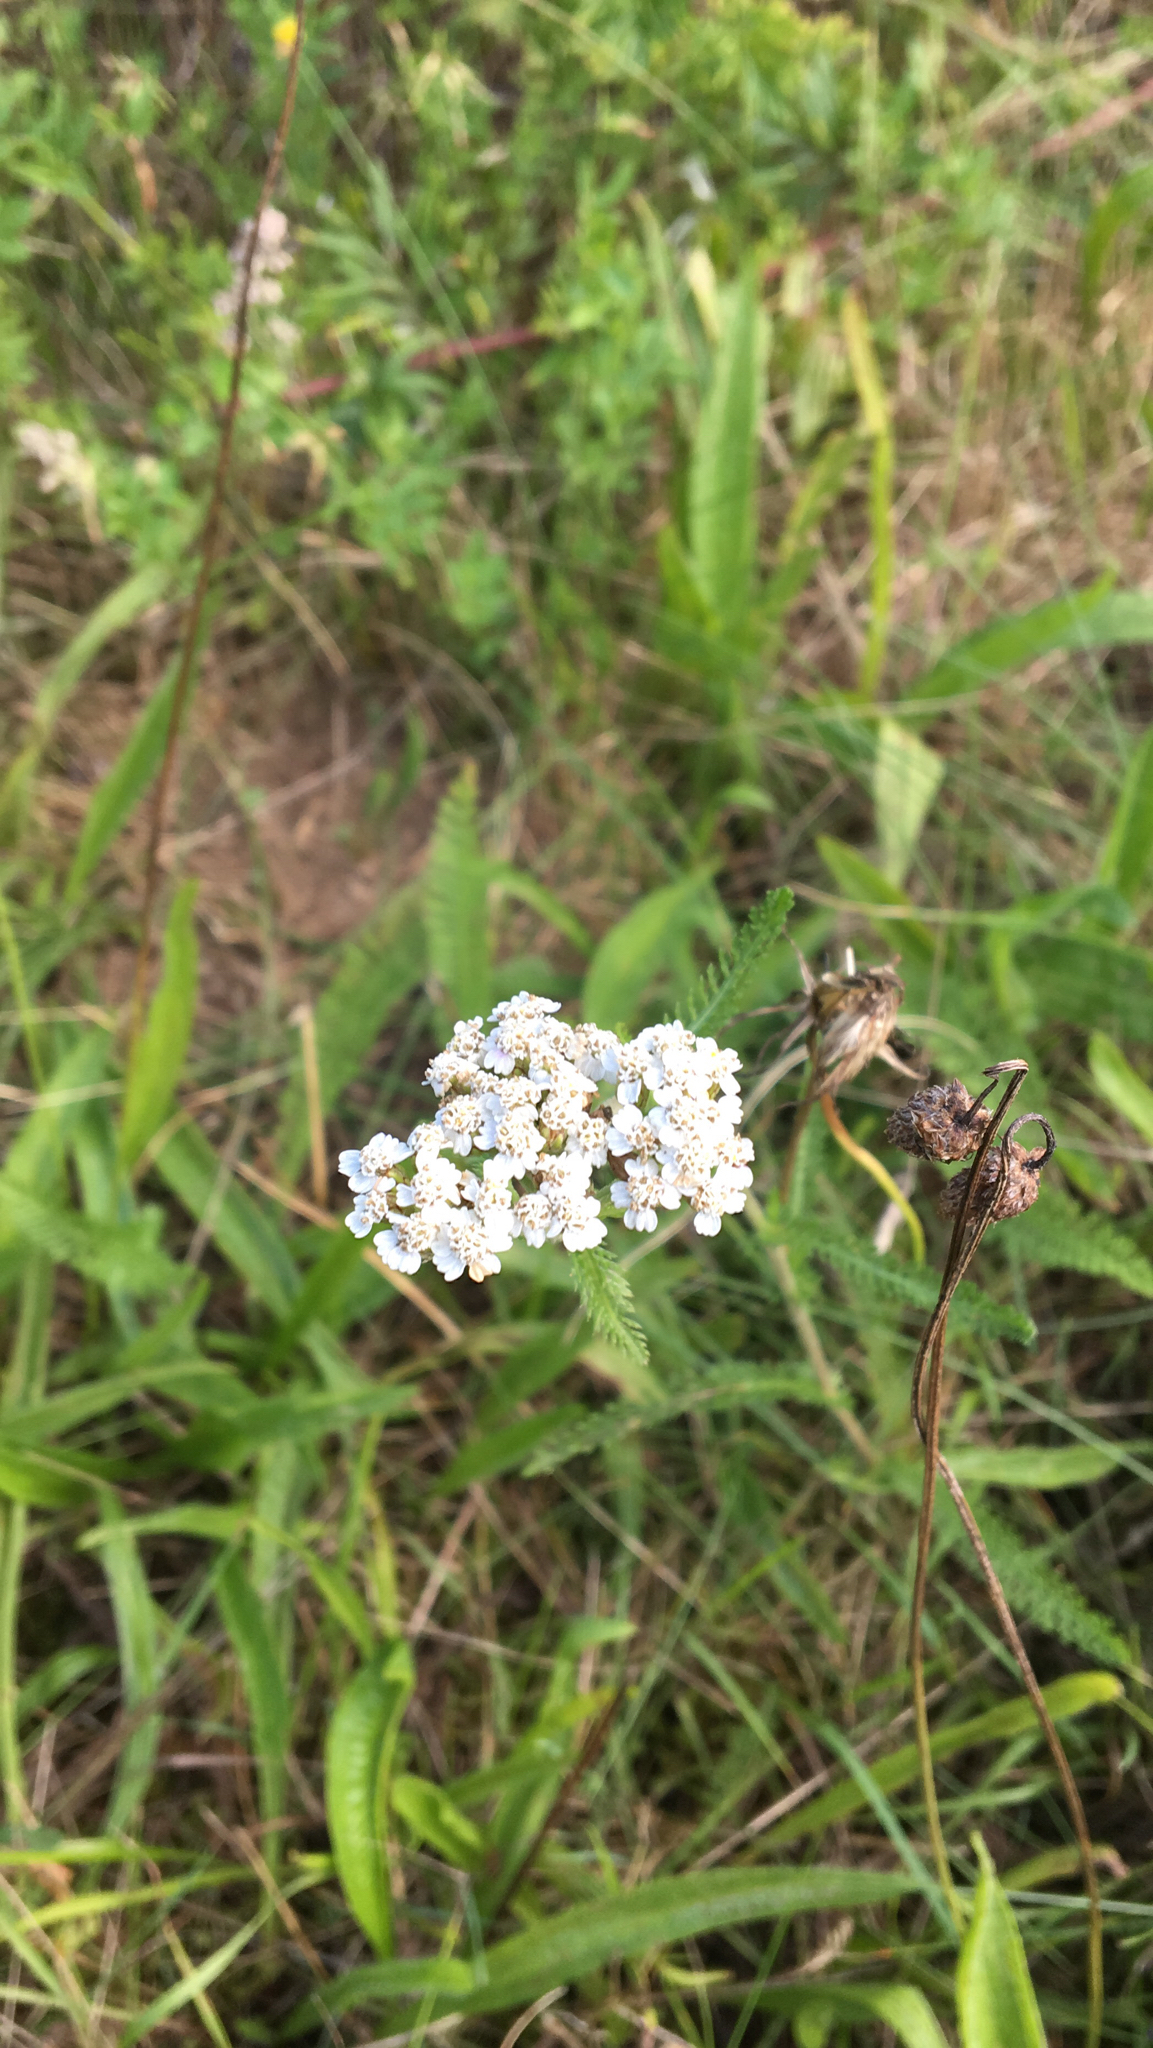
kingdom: Plantae
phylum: Tracheophyta
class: Magnoliopsida
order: Asterales
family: Asteraceae
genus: Achillea
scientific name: Achillea millefolium
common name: Yarrow
